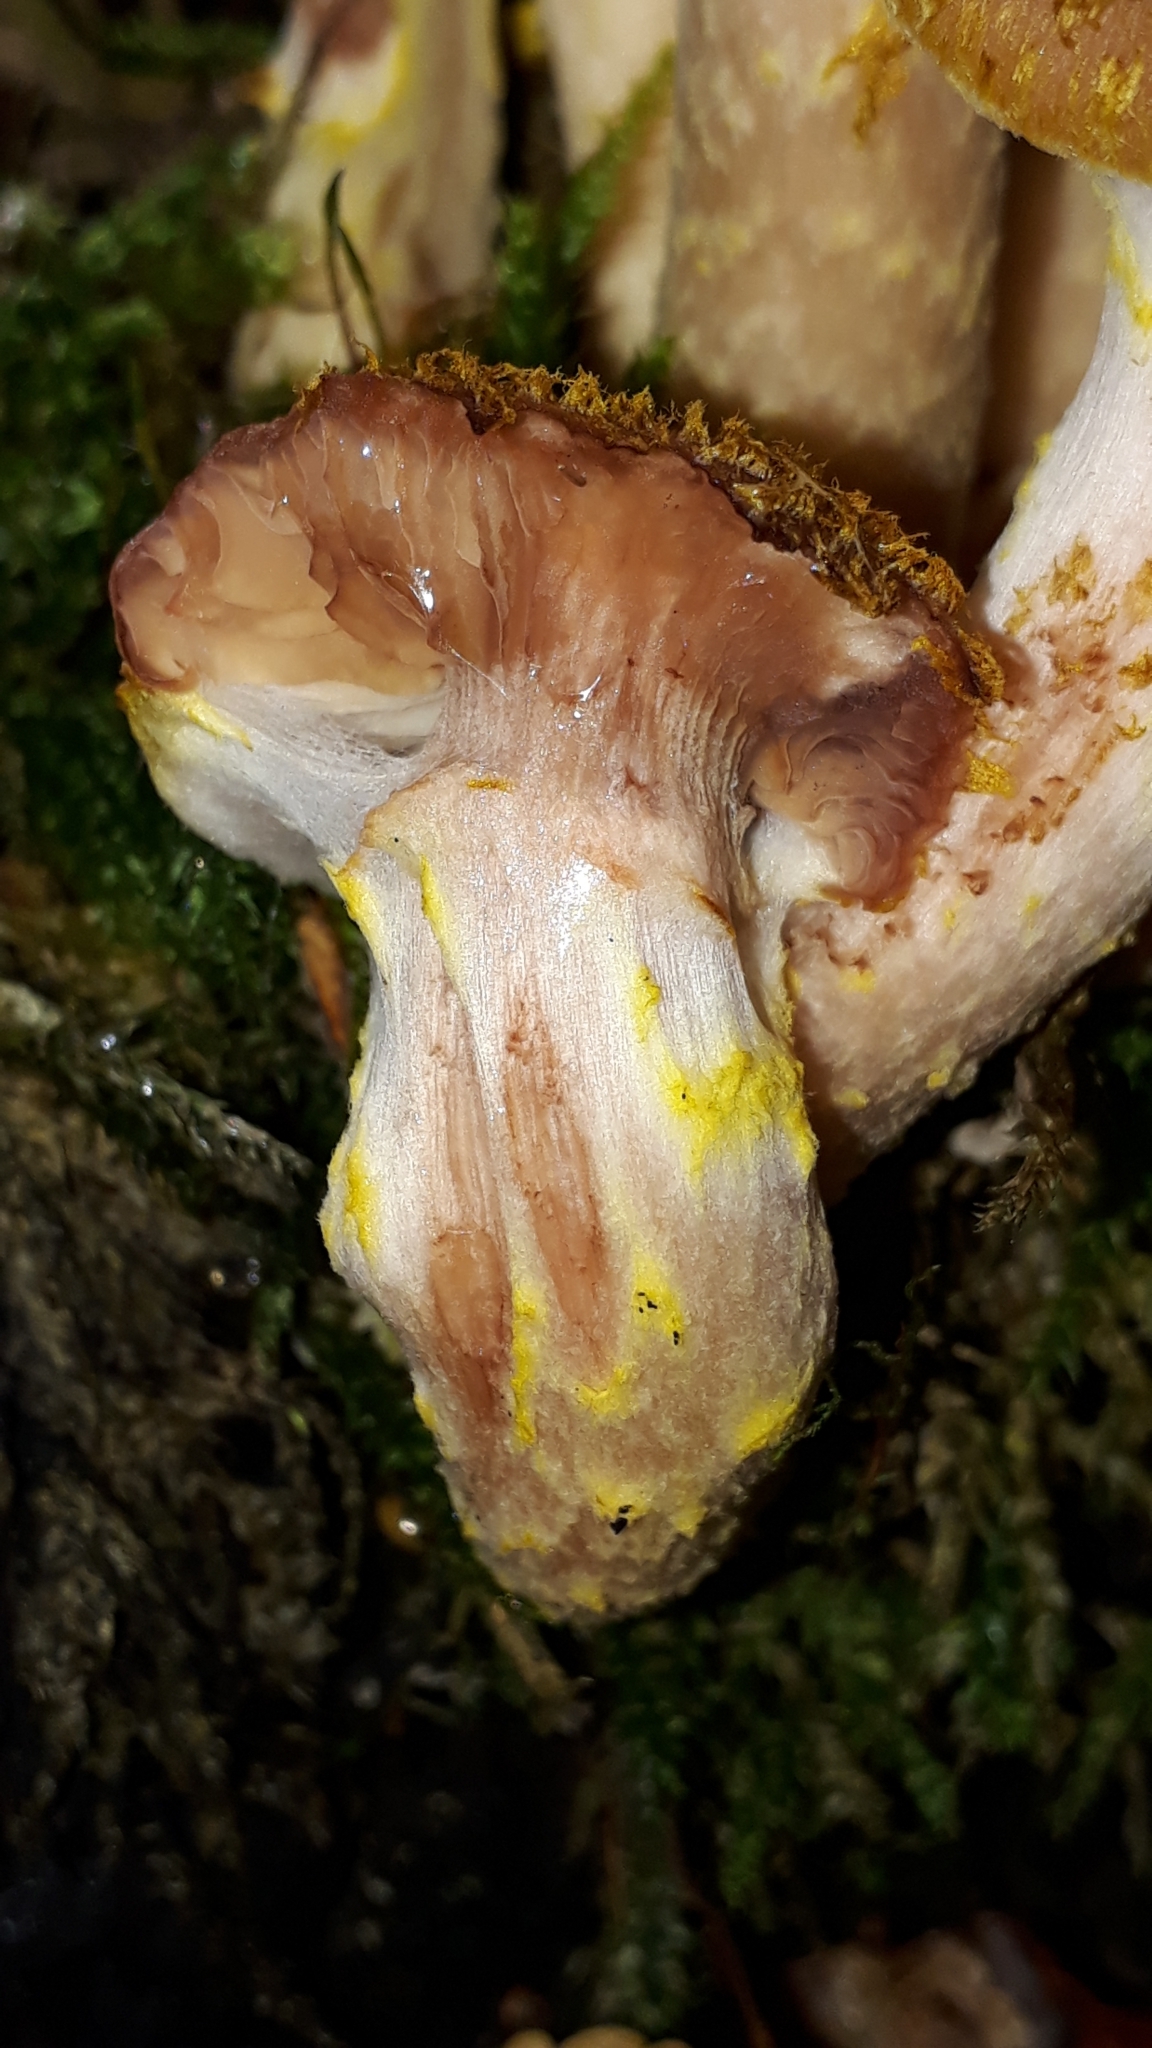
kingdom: Fungi
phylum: Basidiomycota
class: Agaricomycetes
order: Agaricales
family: Physalacriaceae
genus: Armillaria
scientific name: Armillaria gallica
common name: Bulbous honey fungus
